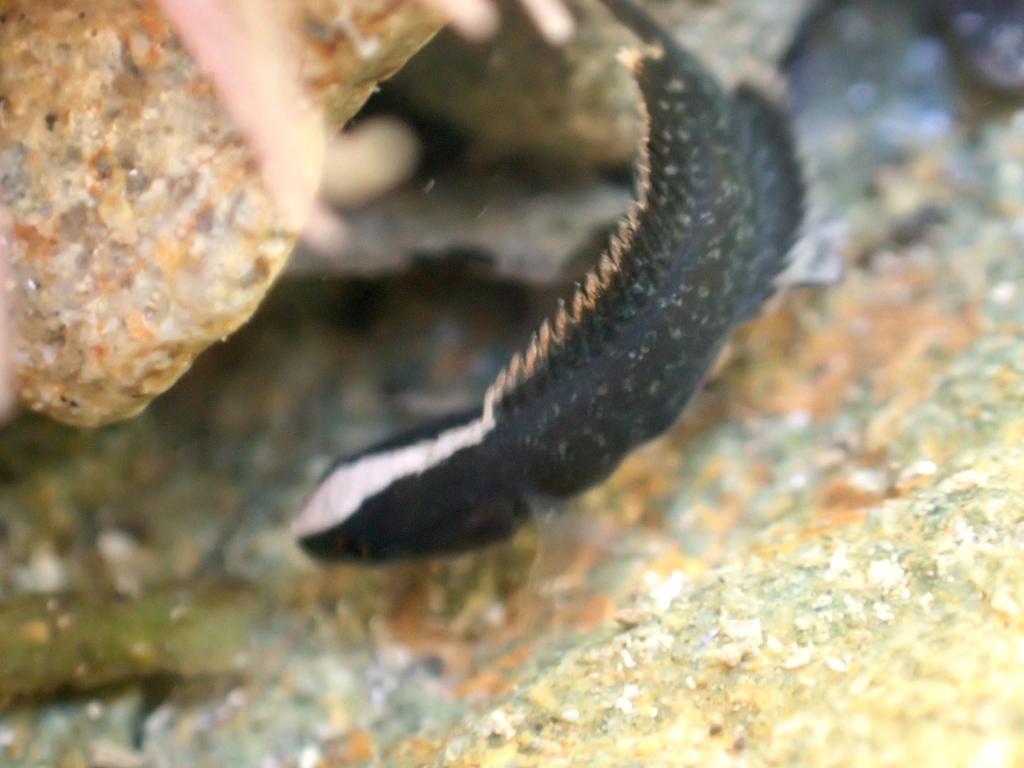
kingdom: Animalia
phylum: Chordata
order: Perciformes
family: Plesiopidae
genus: Acanthoclinus
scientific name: Acanthoclinus fuscus
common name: Olive rockfish
